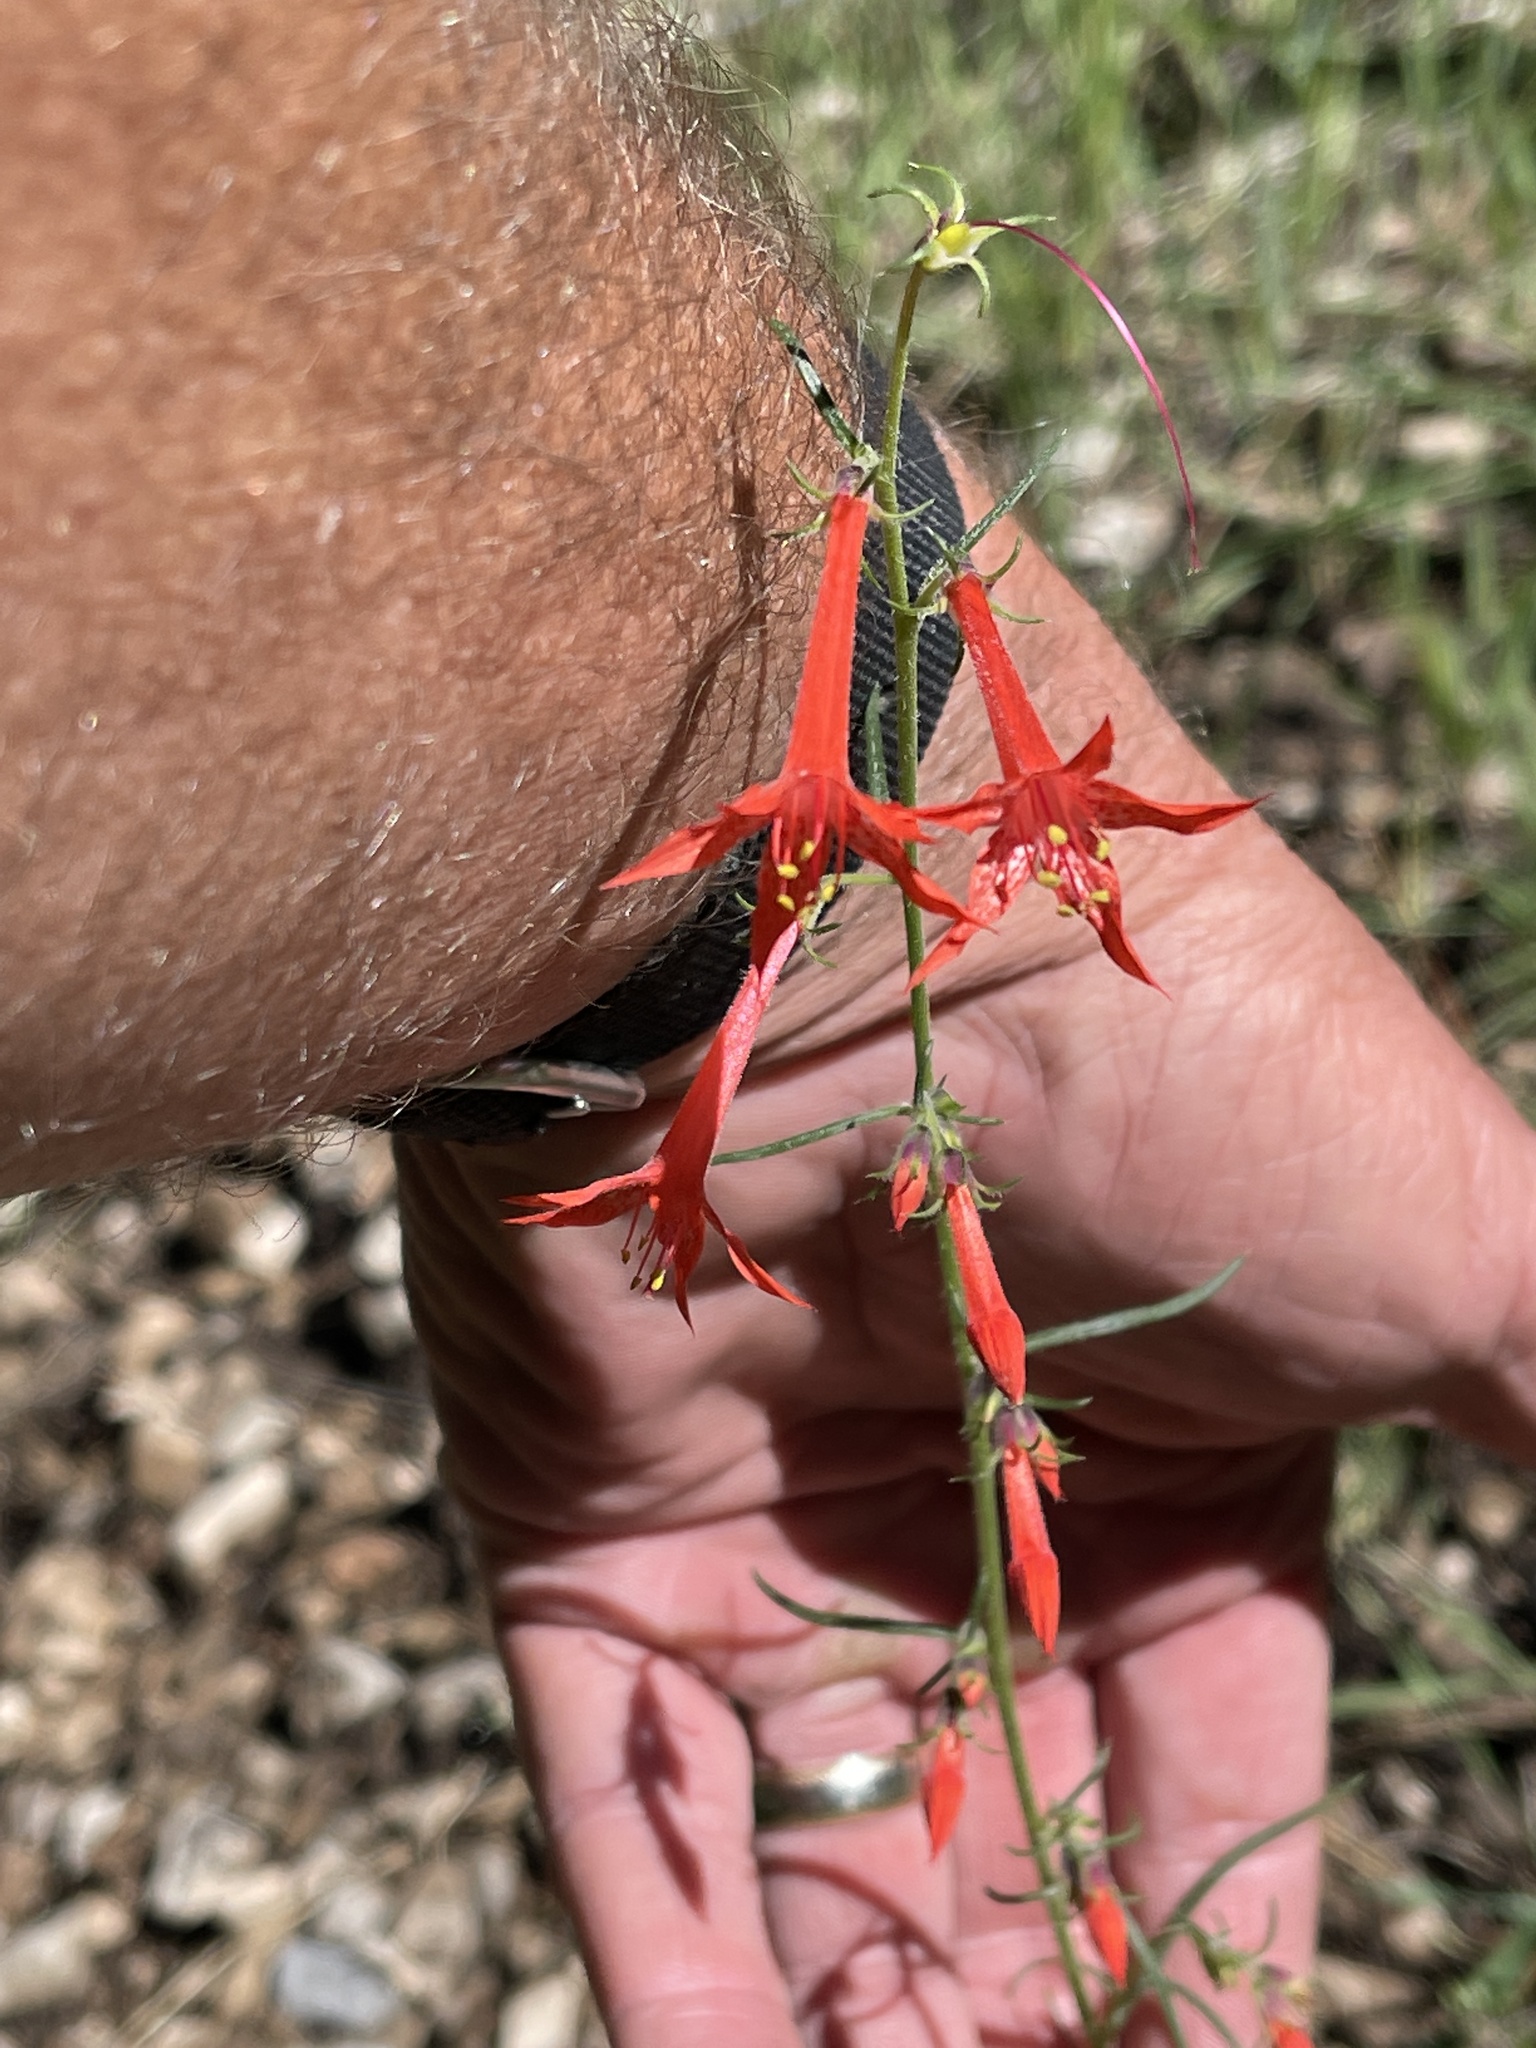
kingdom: Plantae
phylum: Tracheophyta
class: Magnoliopsida
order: Ericales
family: Polemoniaceae
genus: Ipomopsis
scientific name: Ipomopsis aggregata
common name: Scarlet gilia
